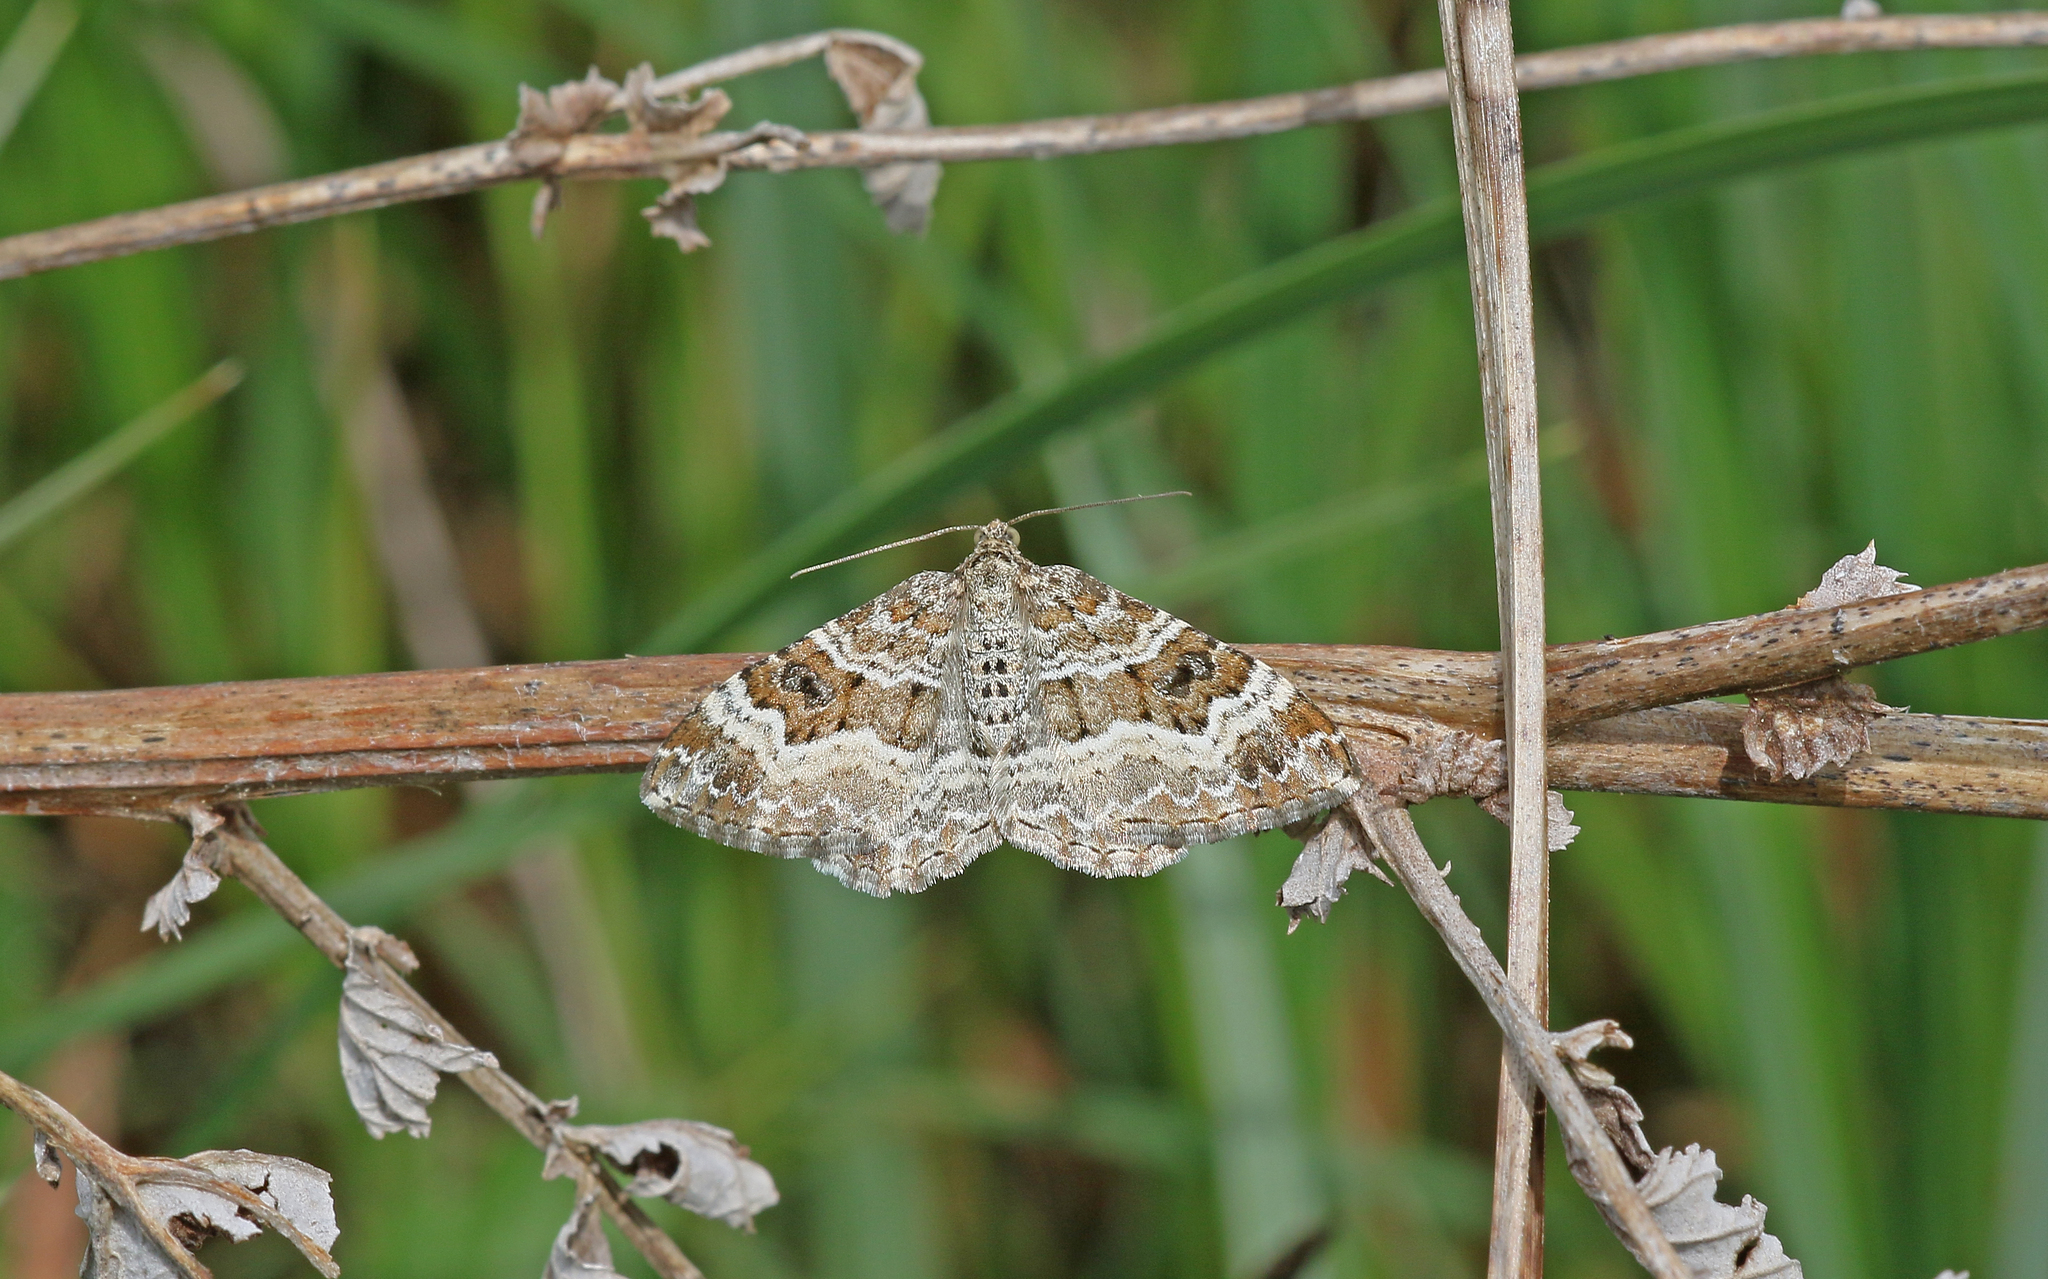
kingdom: Animalia
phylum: Arthropoda
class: Insecta
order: Lepidoptera
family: Geometridae
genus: Epirrhoe
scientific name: Epirrhoe alternata
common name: Common carpet
